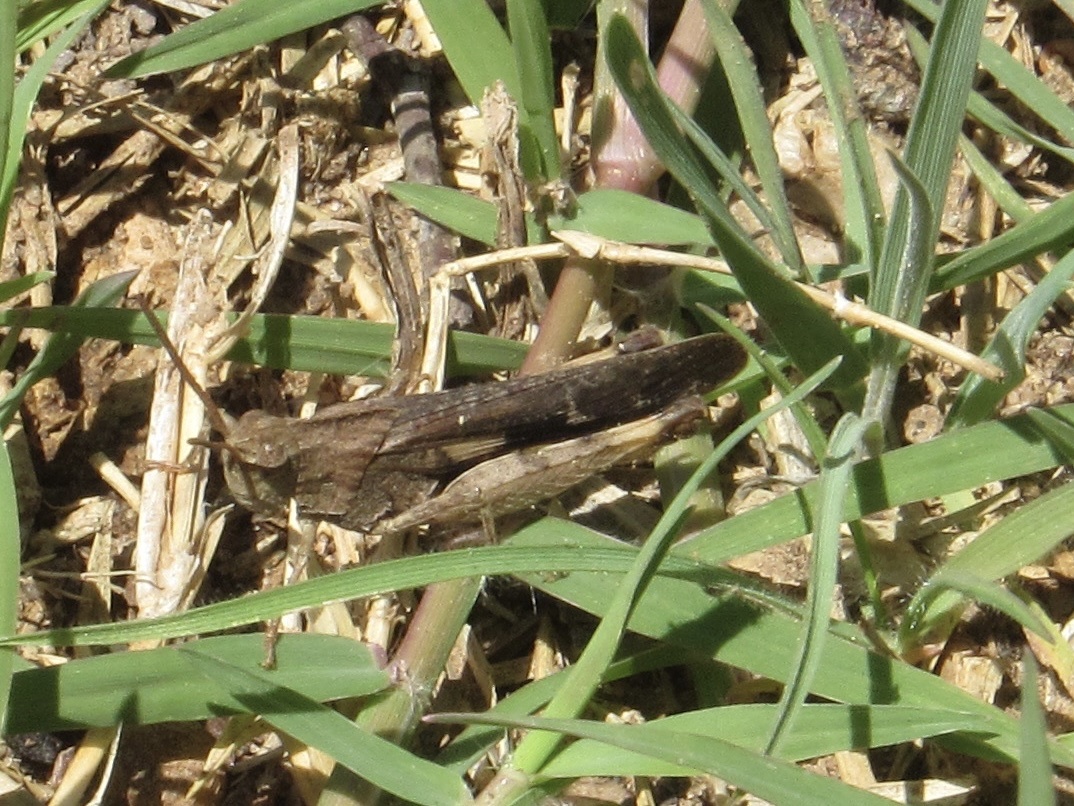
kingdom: Animalia
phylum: Arthropoda
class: Insecta
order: Orthoptera
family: Acrididae
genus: Chortophaga
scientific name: Chortophaga viridifasciata
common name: Green-striped grasshopper
